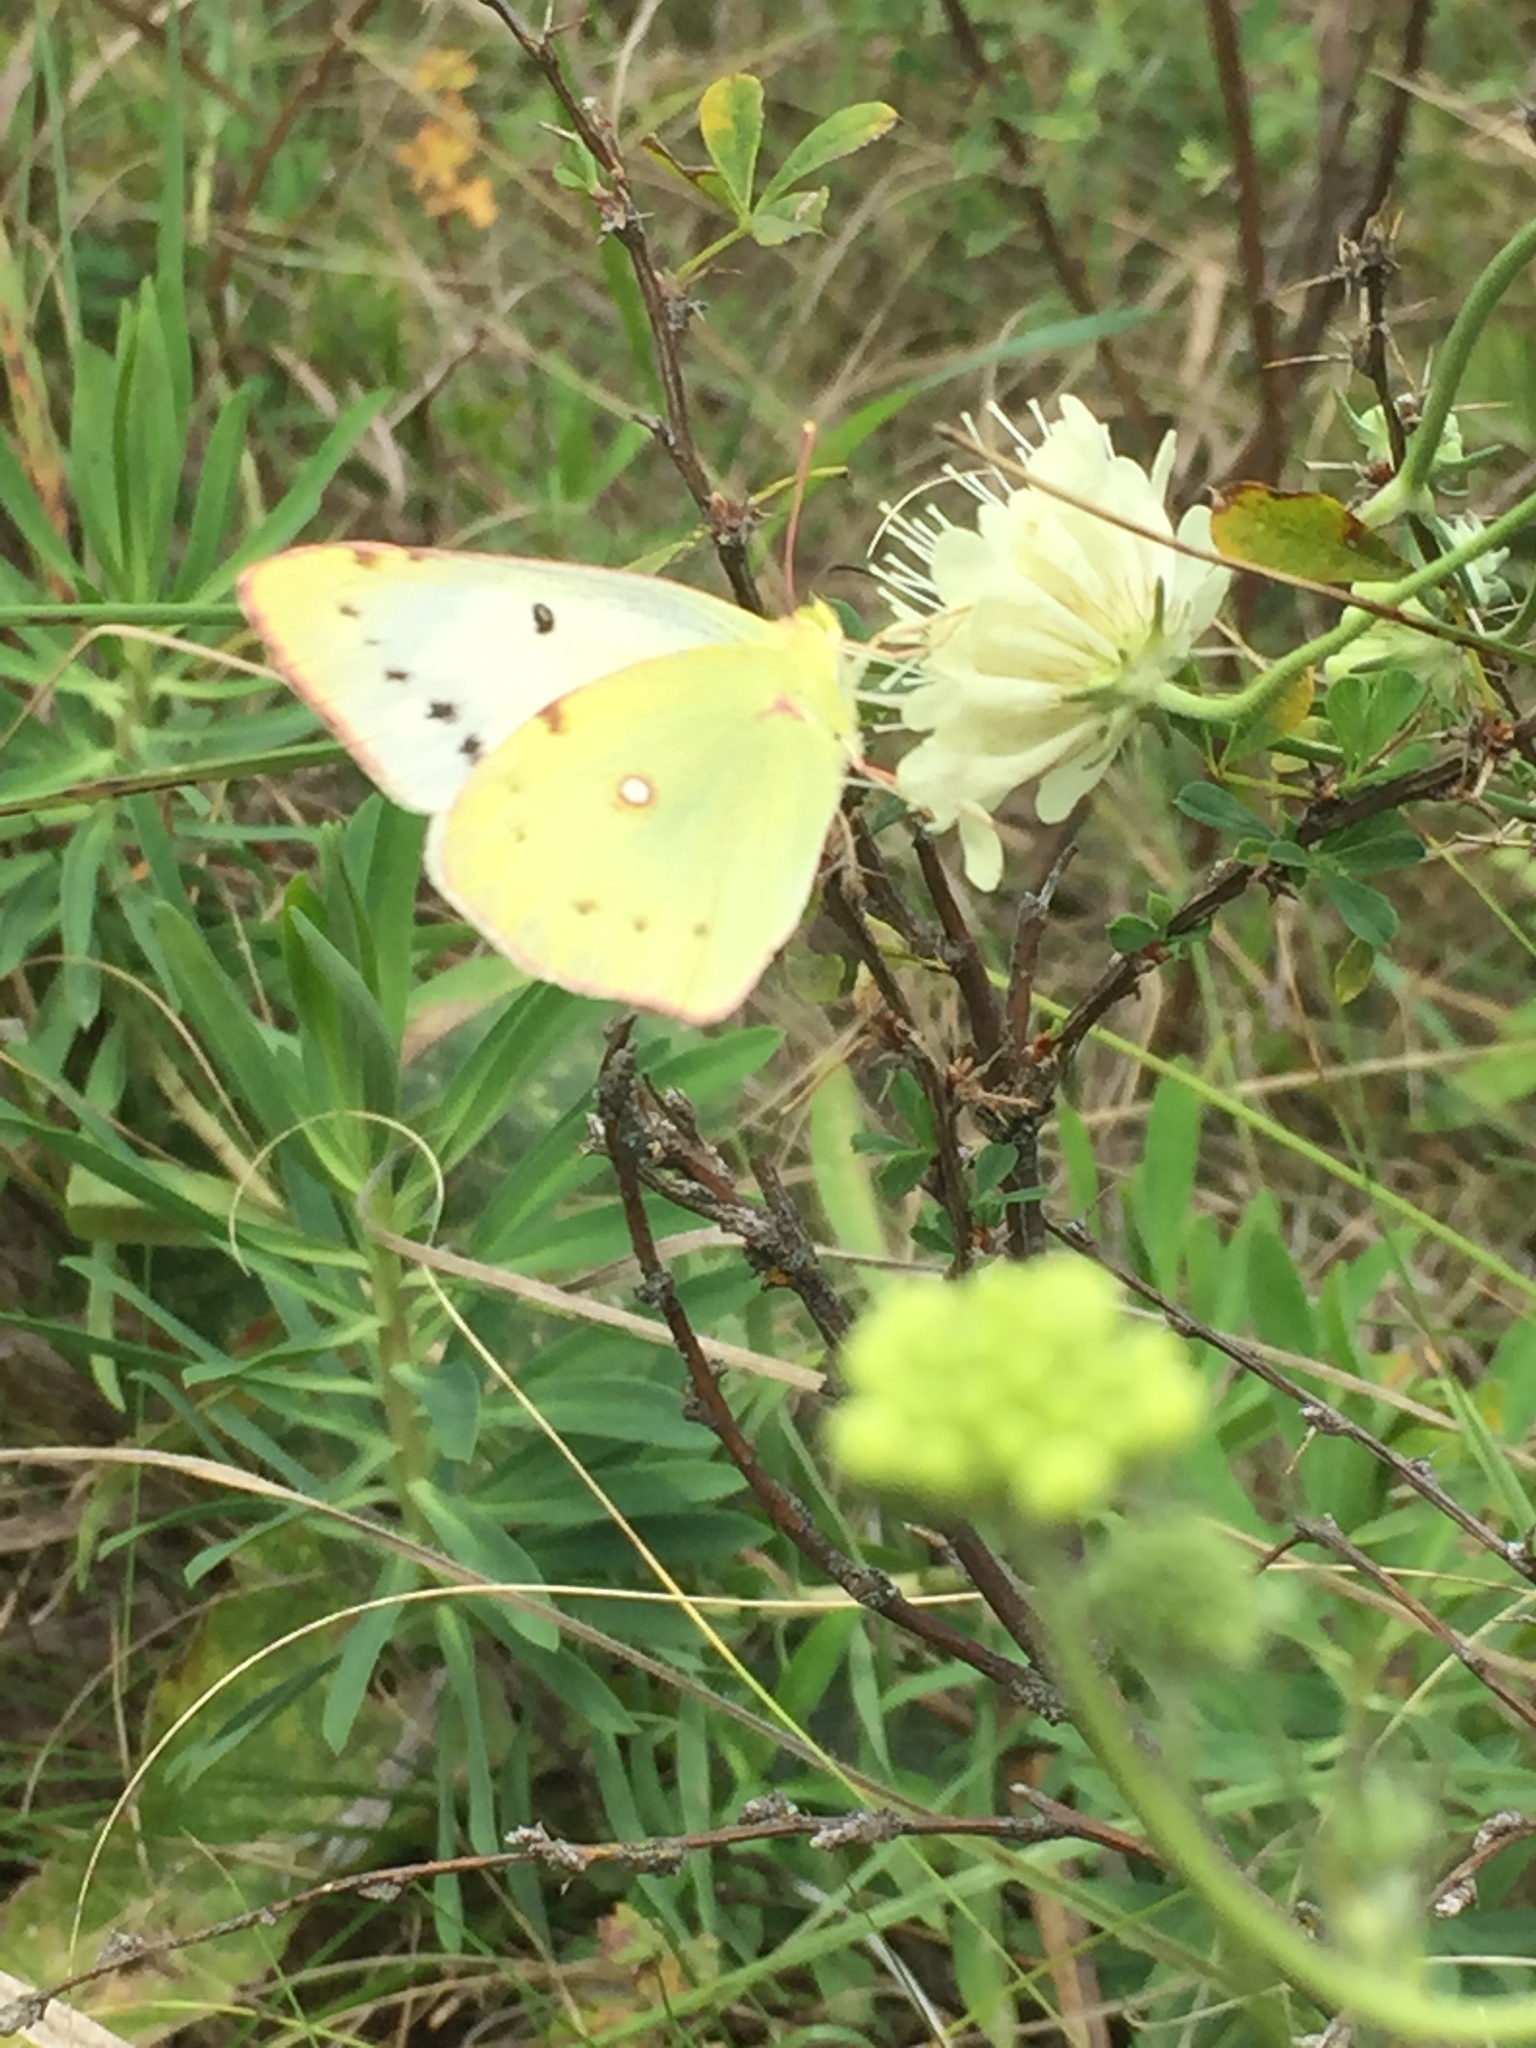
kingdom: Animalia
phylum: Arthropoda
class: Insecta
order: Lepidoptera
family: Pieridae
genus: Colias
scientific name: Colias hyale
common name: Pale clouded yellow
